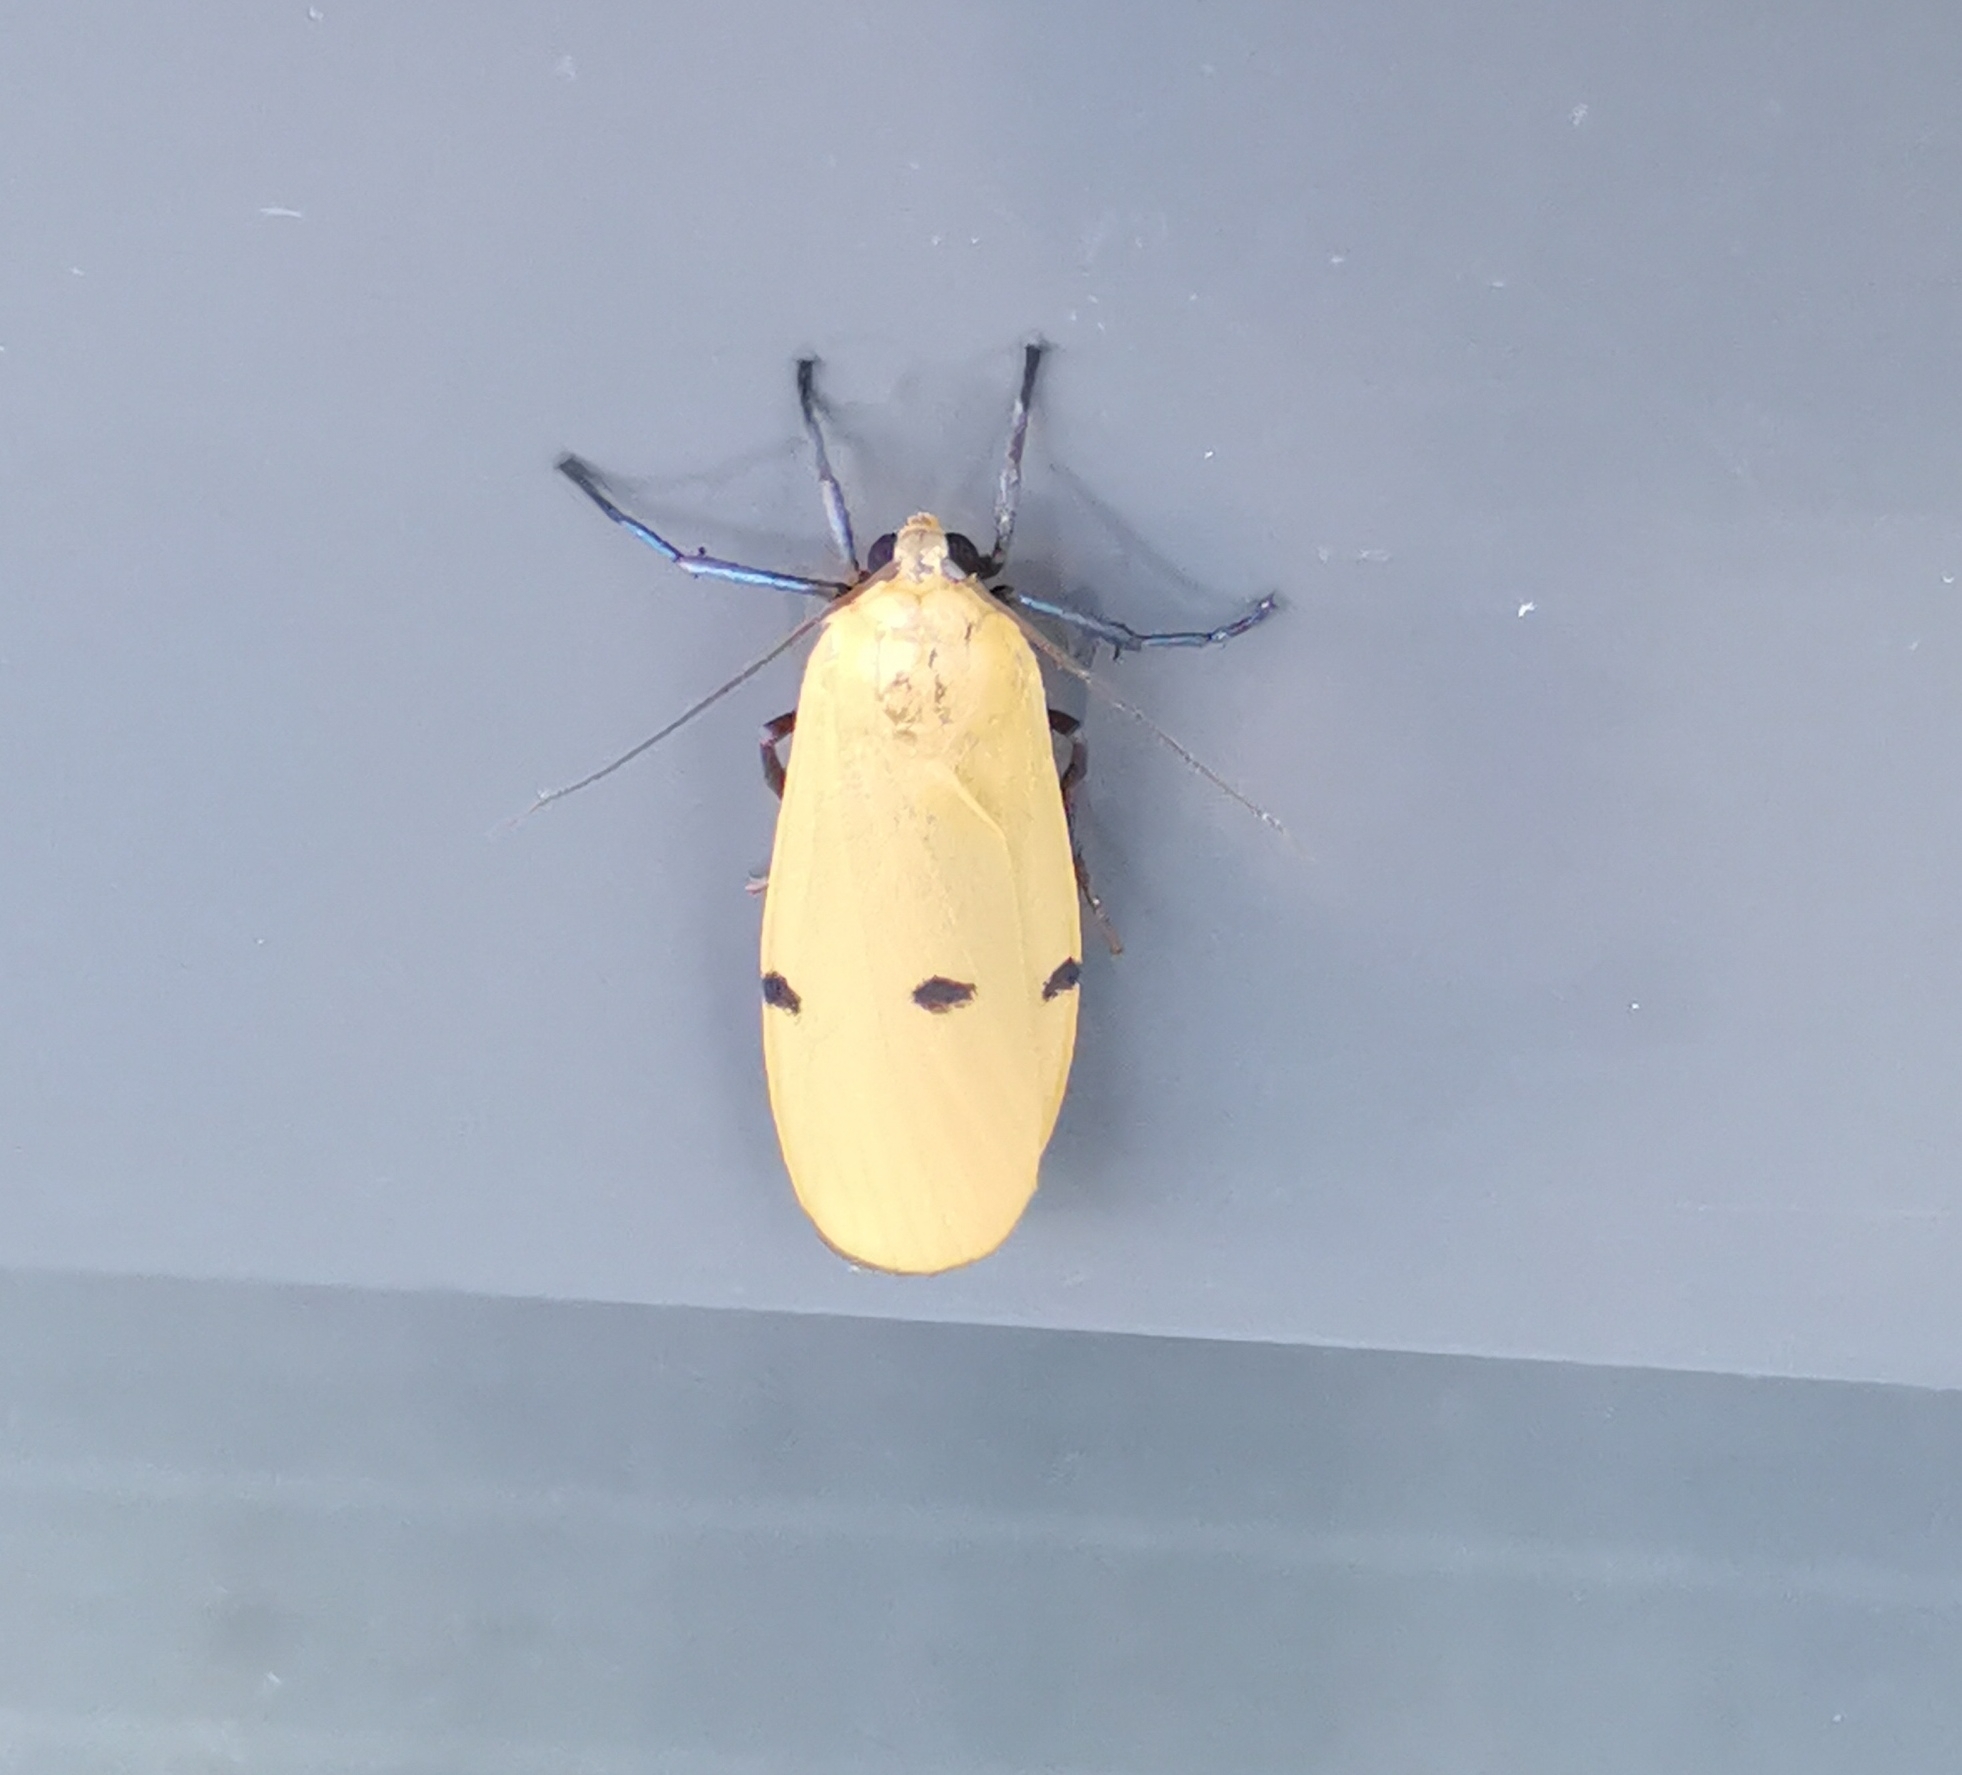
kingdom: Animalia
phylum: Arthropoda
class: Insecta
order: Lepidoptera
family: Erebidae
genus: Lithosia
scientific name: Lithosia quadra
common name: Four-spotted footman
